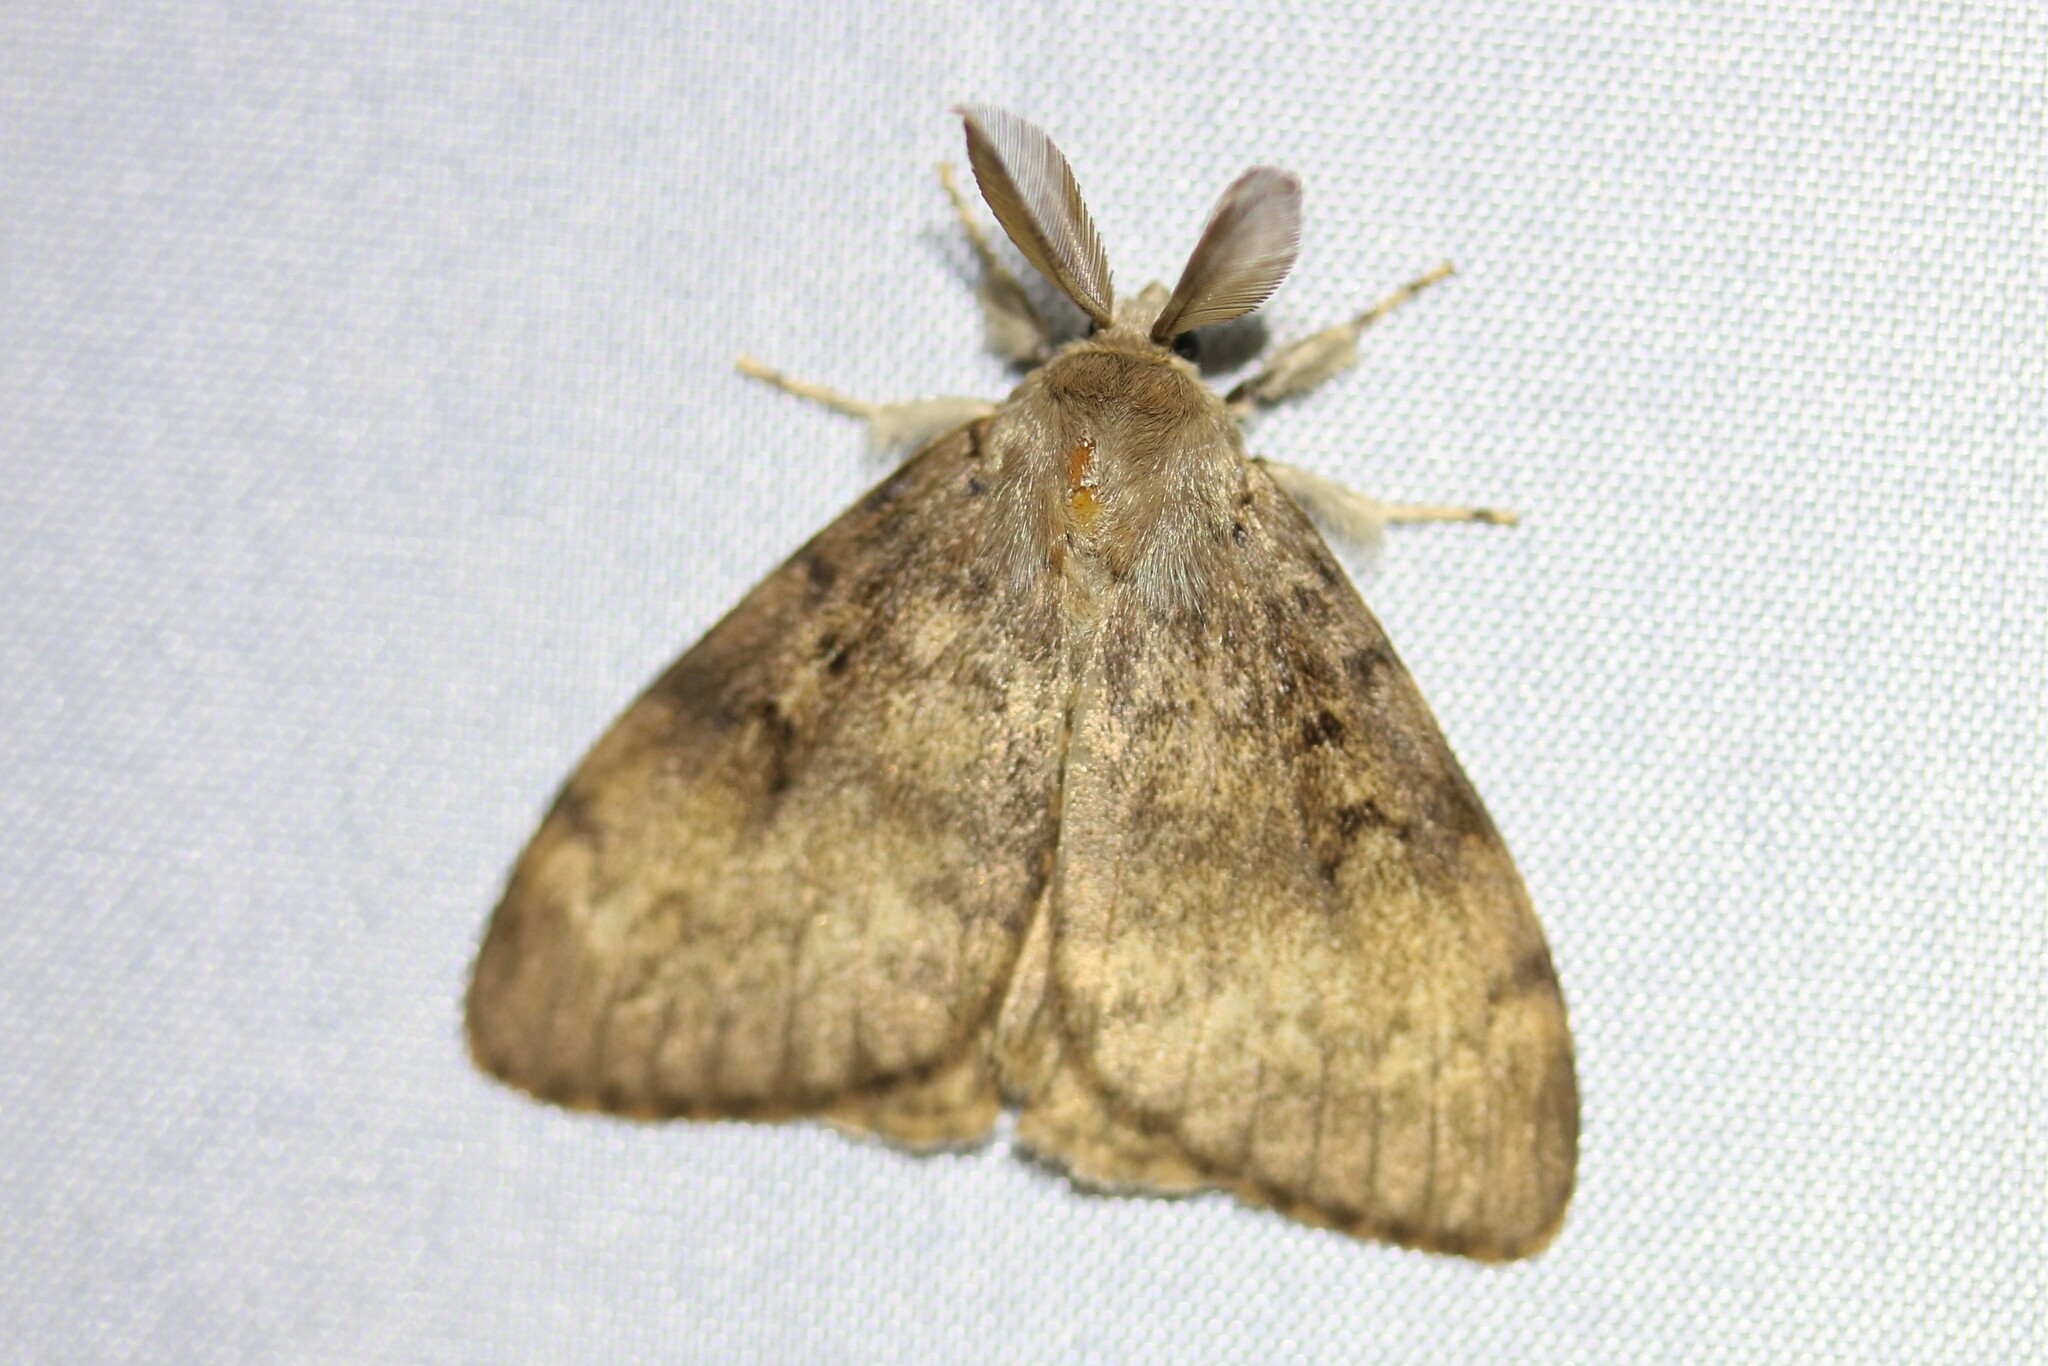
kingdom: Animalia
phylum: Arthropoda
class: Insecta
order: Lepidoptera
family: Erebidae
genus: Lymantria
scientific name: Lymantria dispar
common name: Gypsy moth
